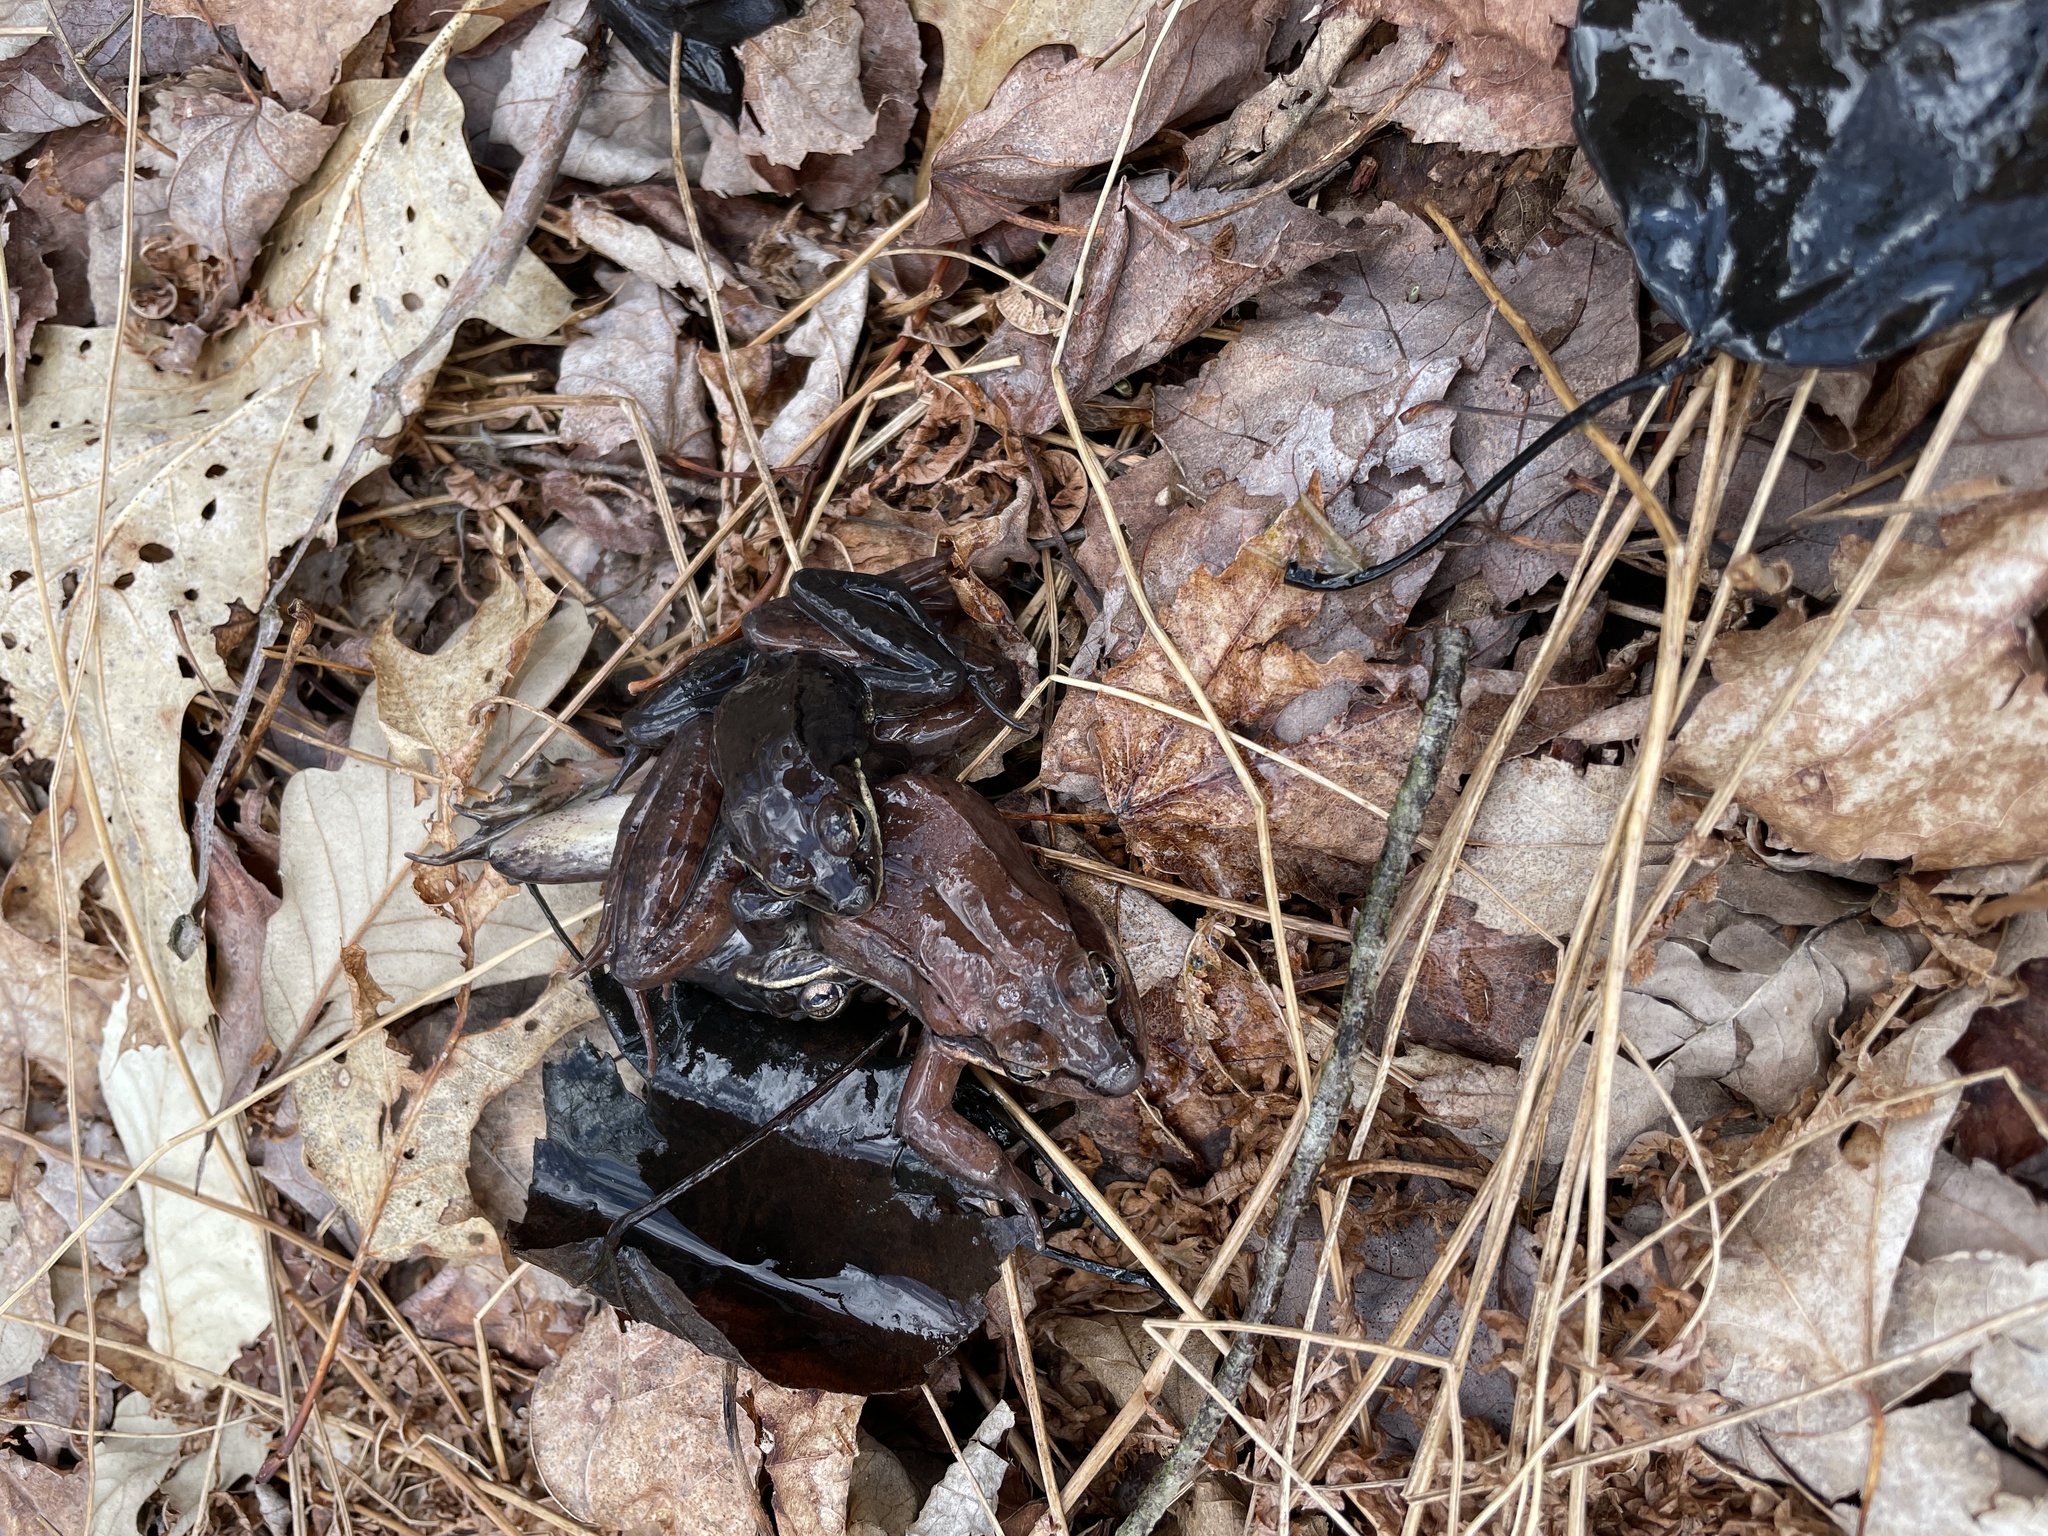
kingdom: Animalia
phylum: Chordata
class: Amphibia
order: Anura
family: Ranidae
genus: Lithobates
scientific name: Lithobates sylvaticus
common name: Wood frog
